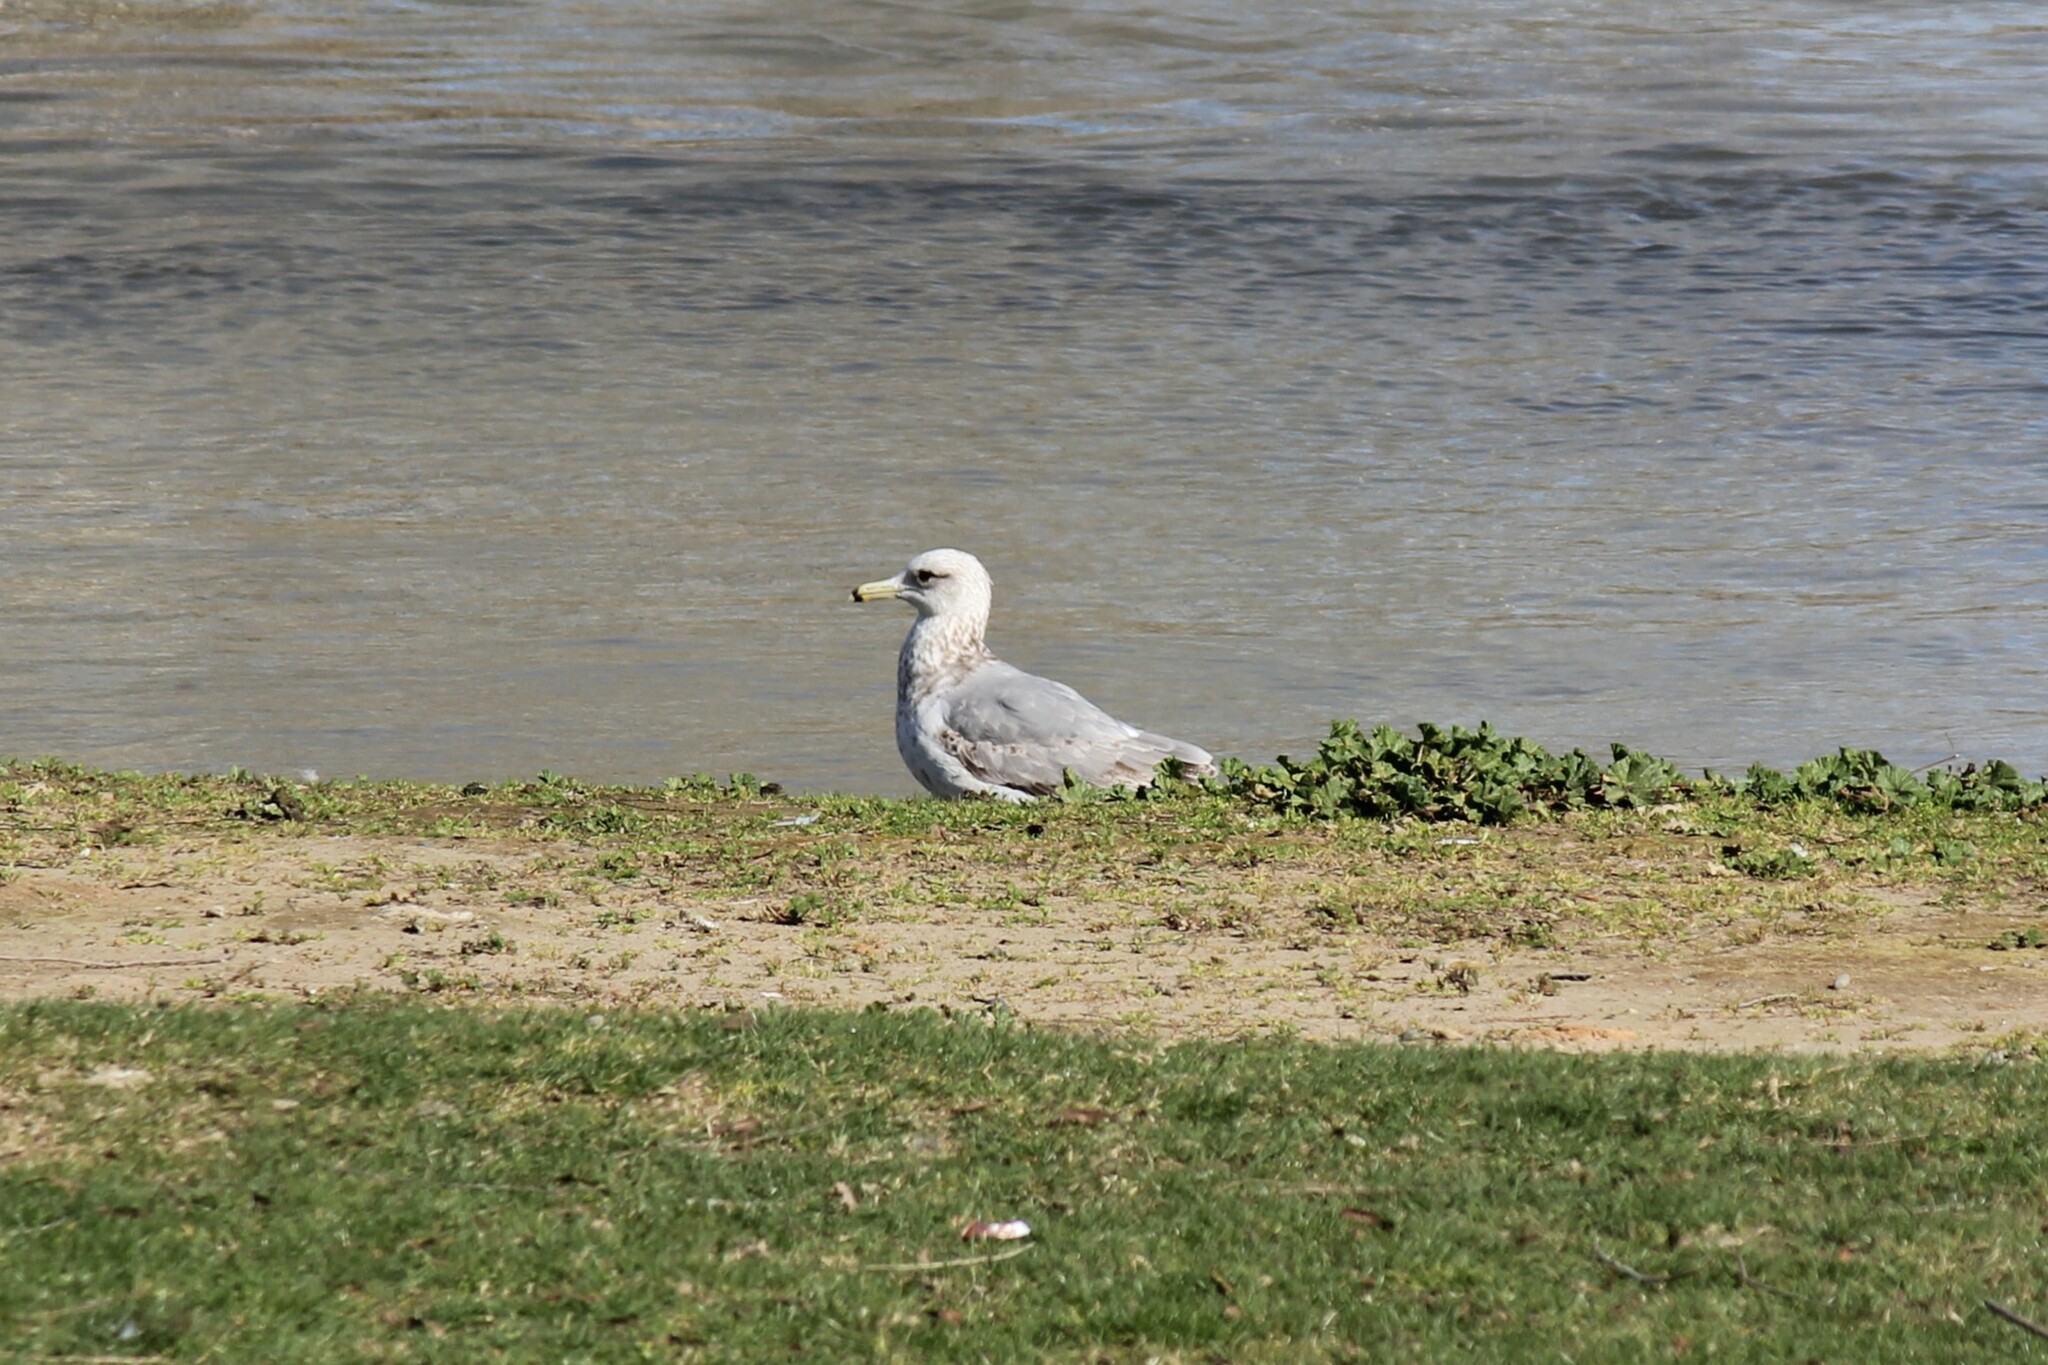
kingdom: Animalia
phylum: Chordata
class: Aves
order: Charadriiformes
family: Laridae
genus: Larus
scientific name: Larus californicus
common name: California gull
